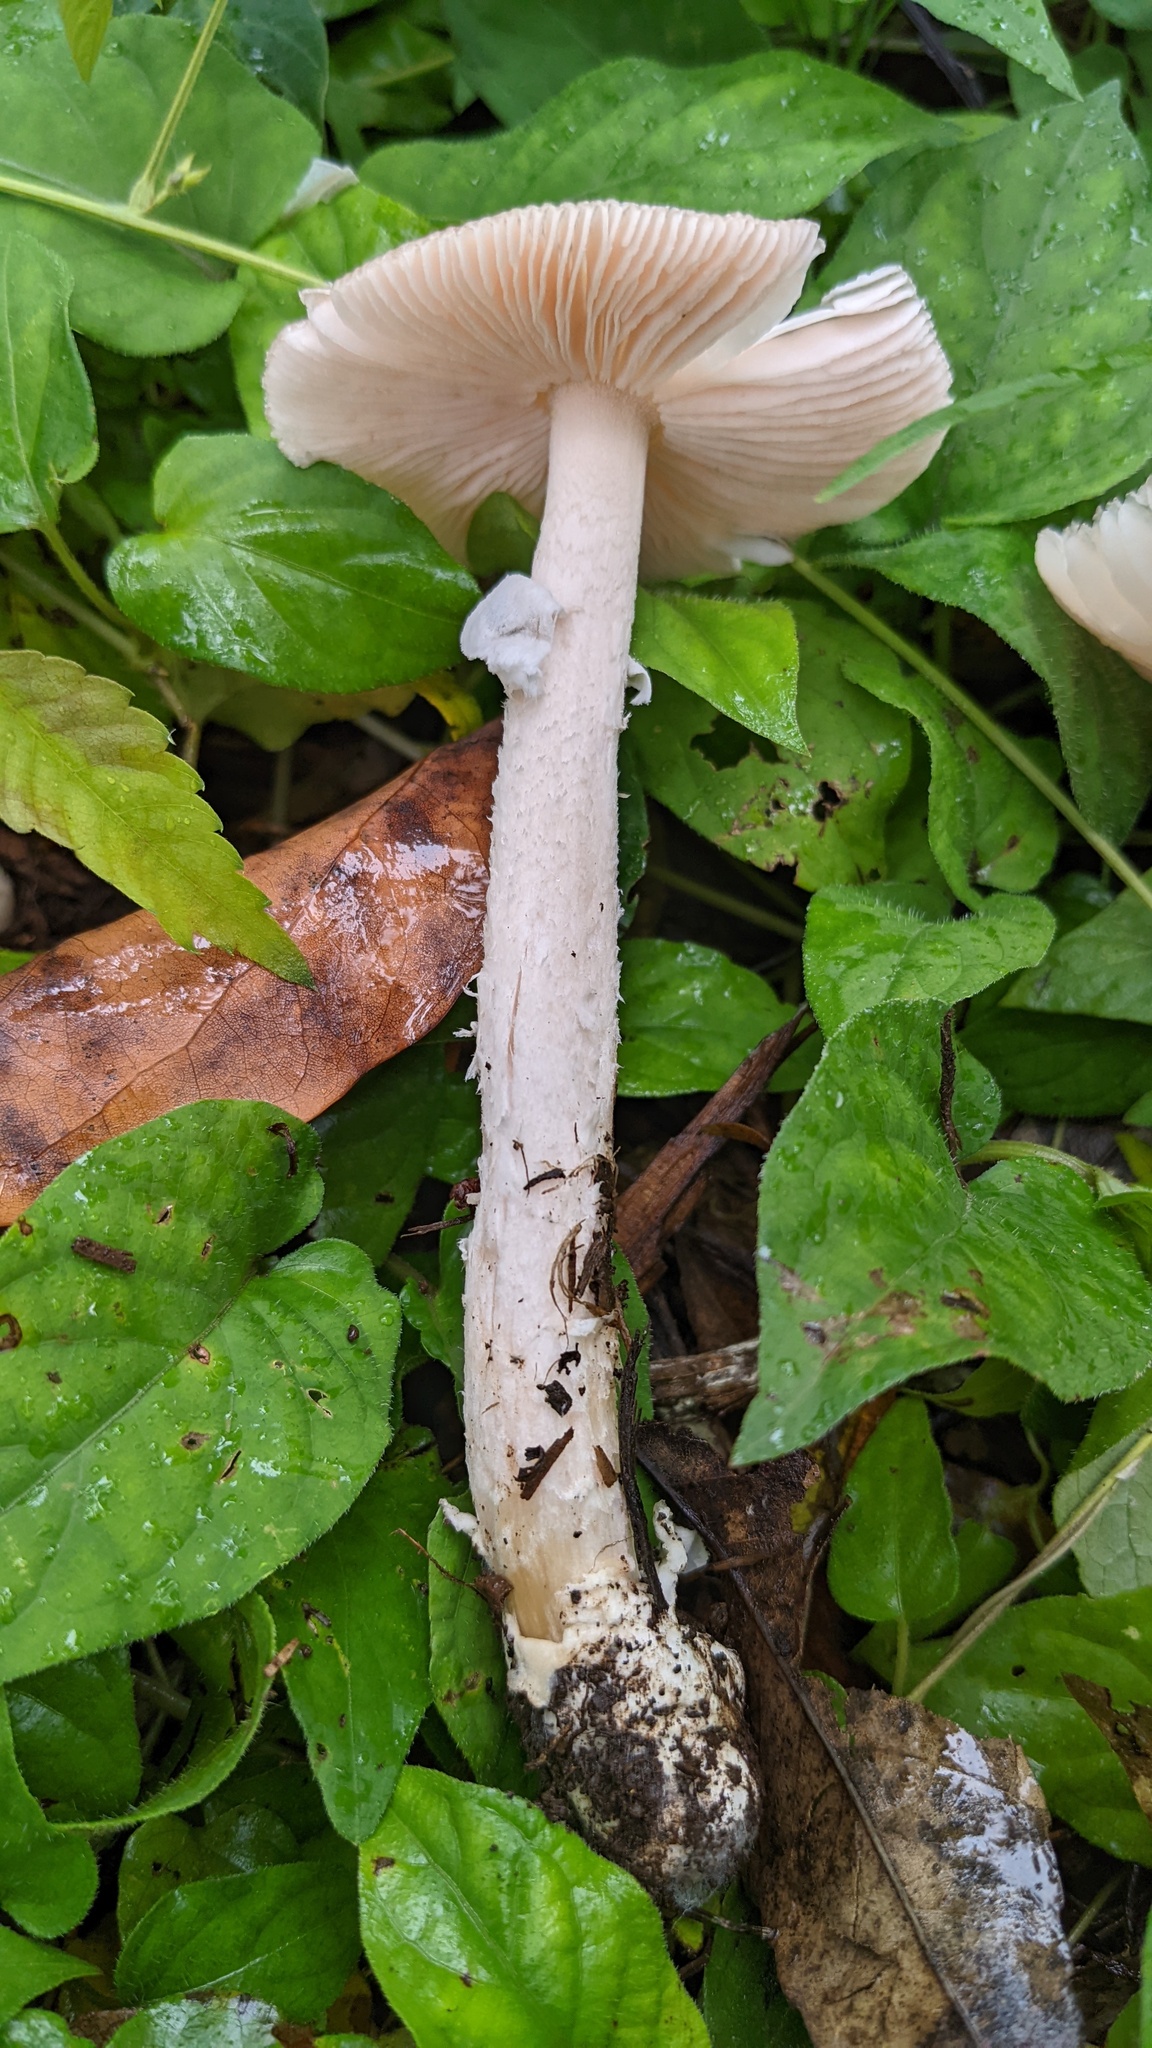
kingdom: Fungi
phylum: Basidiomycota
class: Agaricomycetes
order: Agaricales
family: Amanitaceae
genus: Amanita
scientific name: Amanita longistriata
